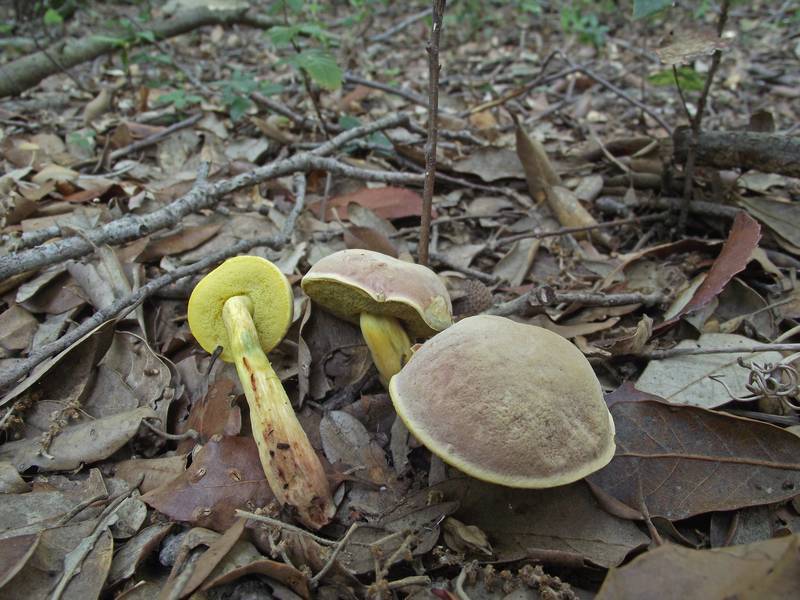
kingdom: Fungi
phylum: Basidiomycota
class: Agaricomycetes
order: Boletales
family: Boletaceae
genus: Xerocomellus
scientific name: Xerocomellus redeuilhii
